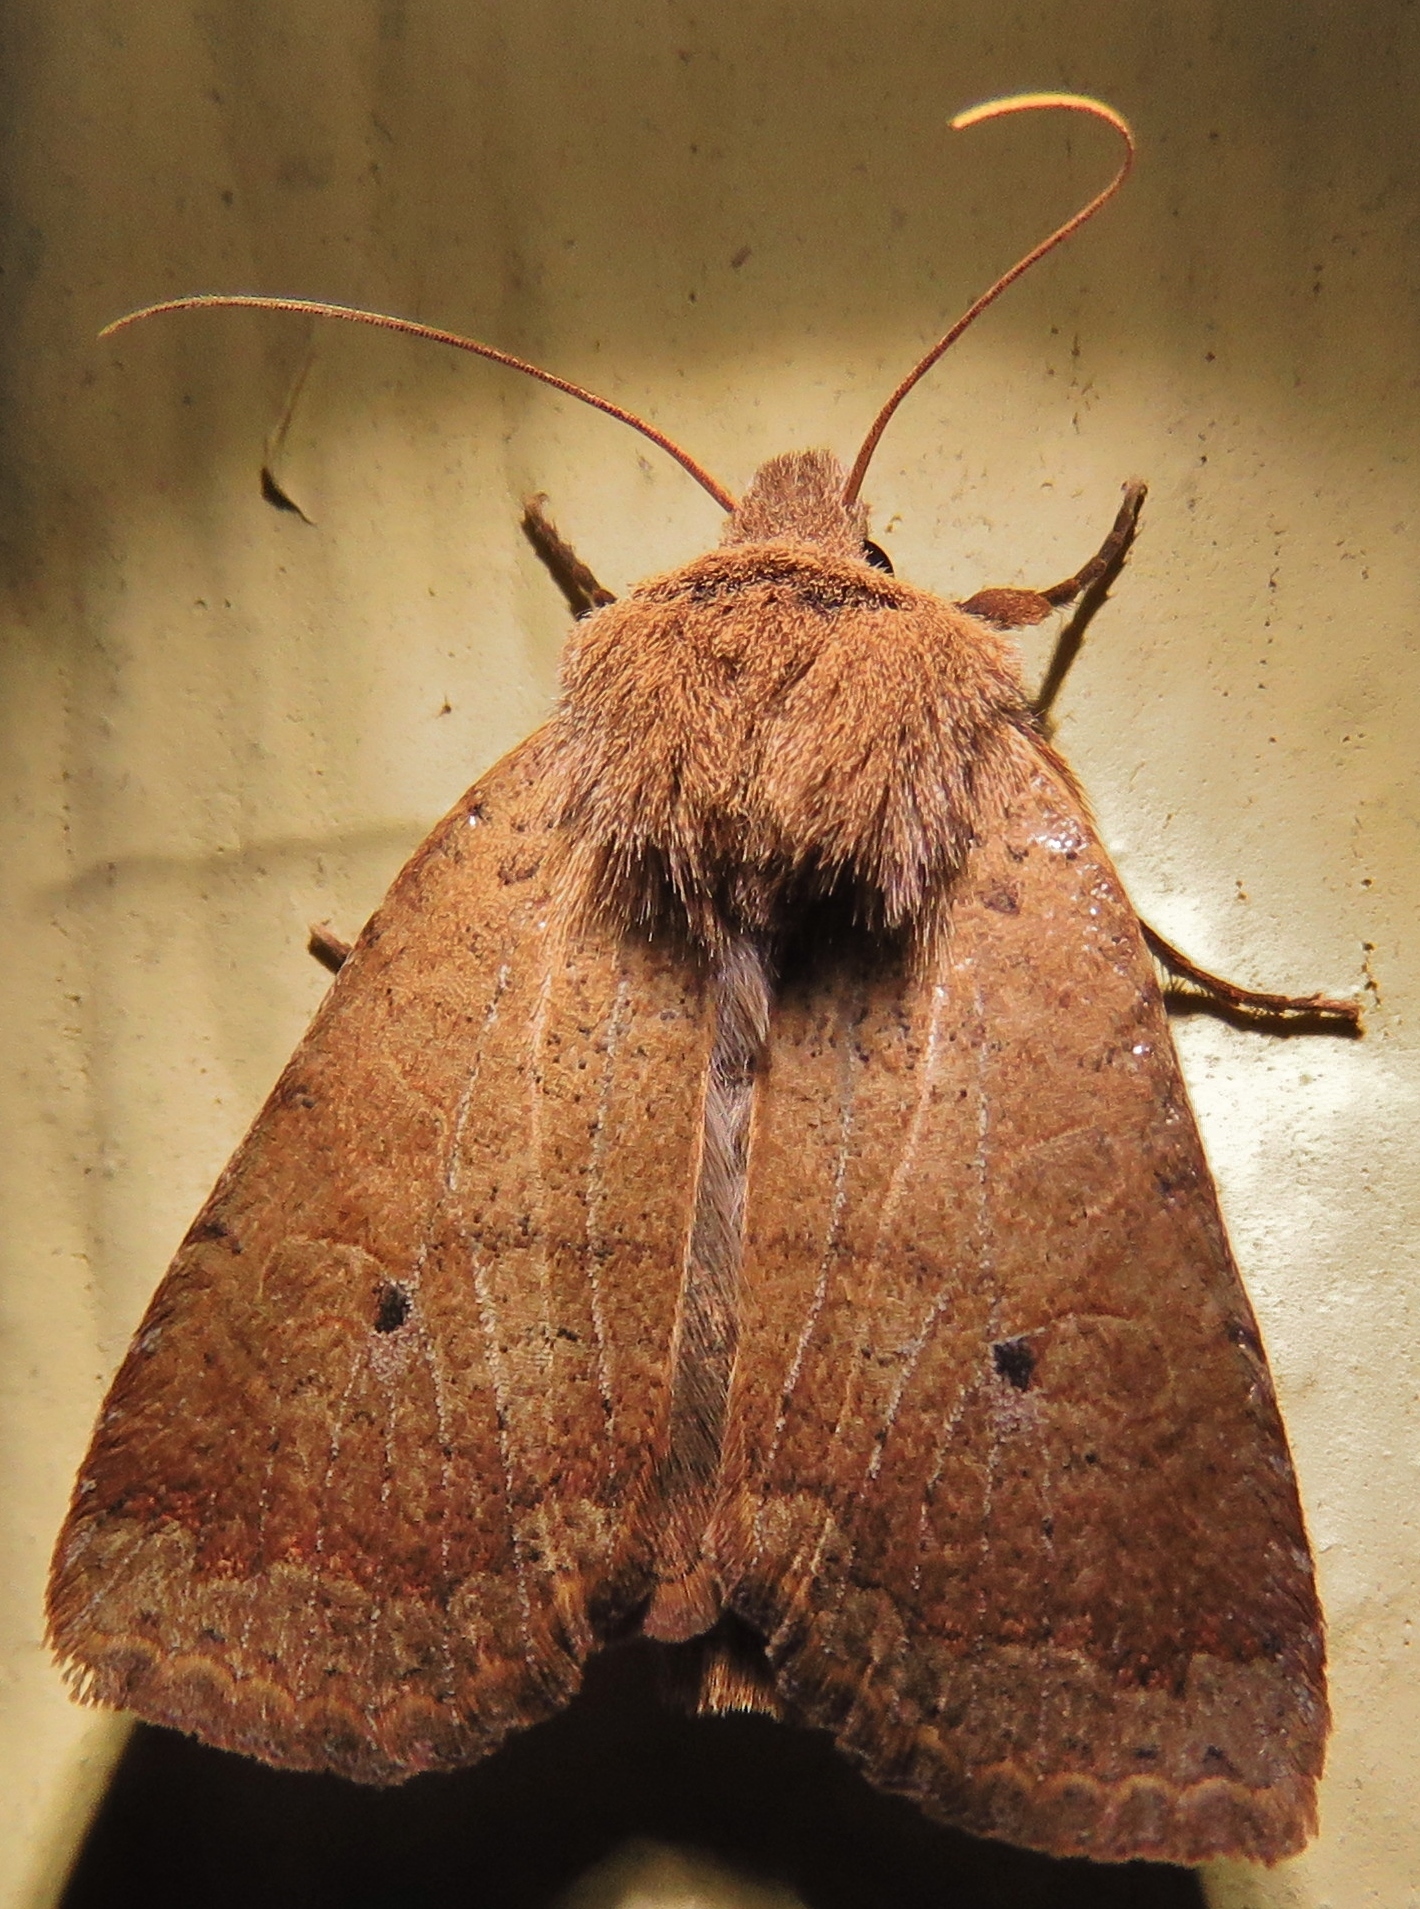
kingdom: Animalia
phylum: Arthropoda
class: Insecta
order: Lepidoptera
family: Noctuidae
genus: Sericaglaea
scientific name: Sericaglaea signata
